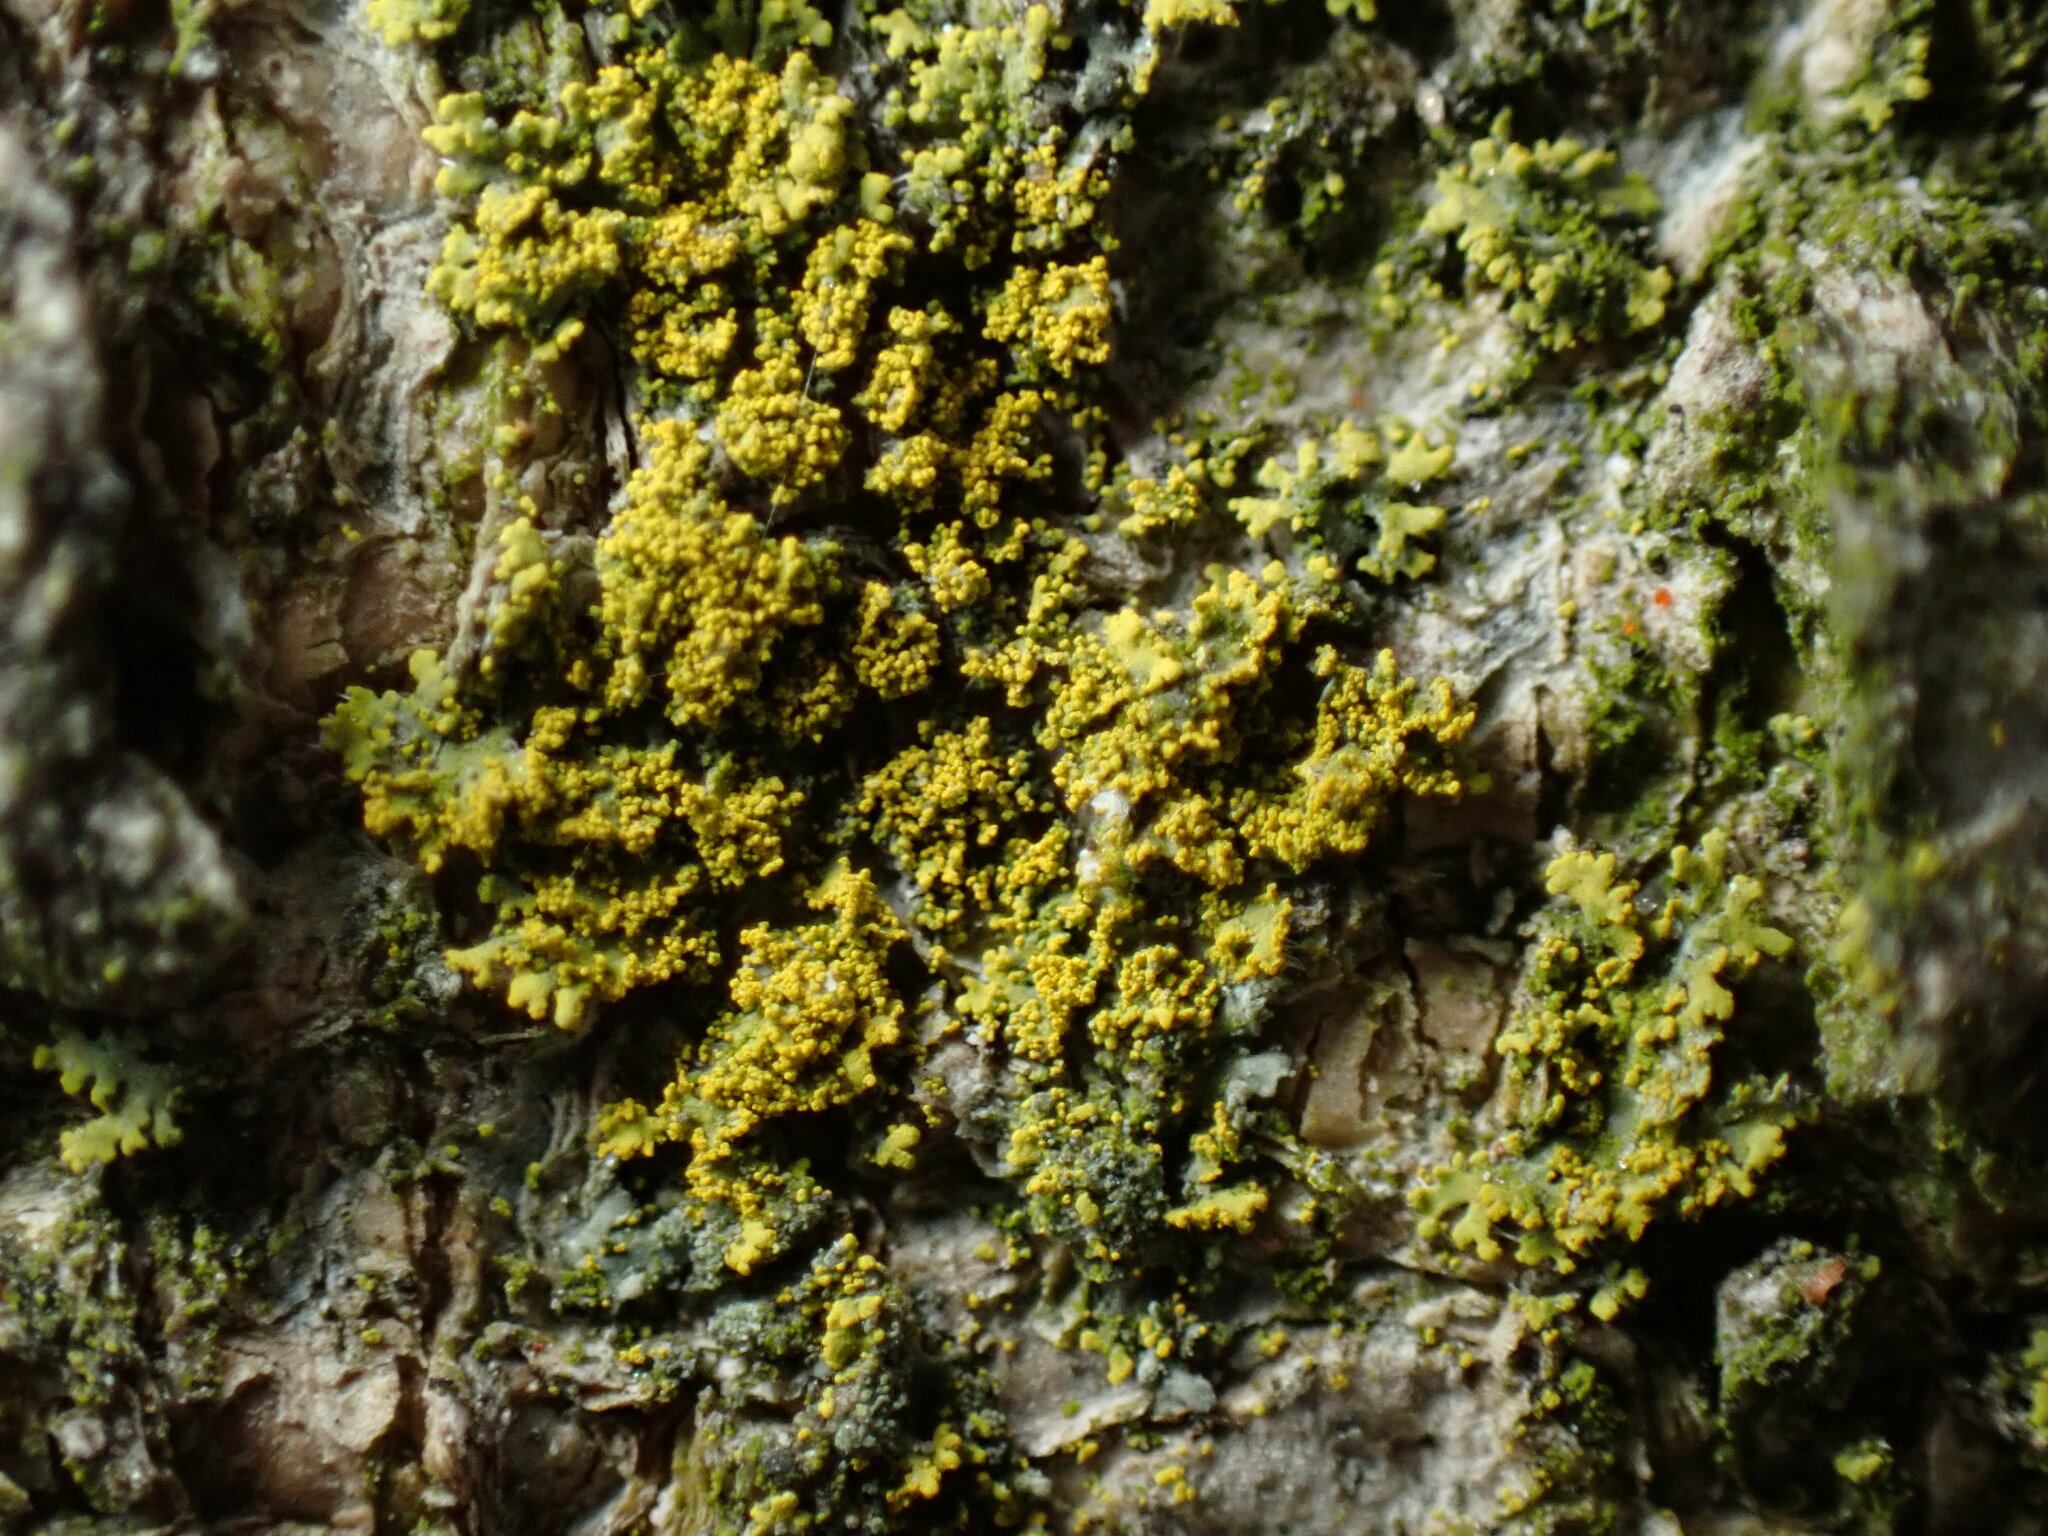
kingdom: Fungi
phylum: Ascomycota
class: Candelariomycetes
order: Candelariales
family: Candelariaceae
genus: Candelaria
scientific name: Candelaria concolor
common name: Candleflame lichen
